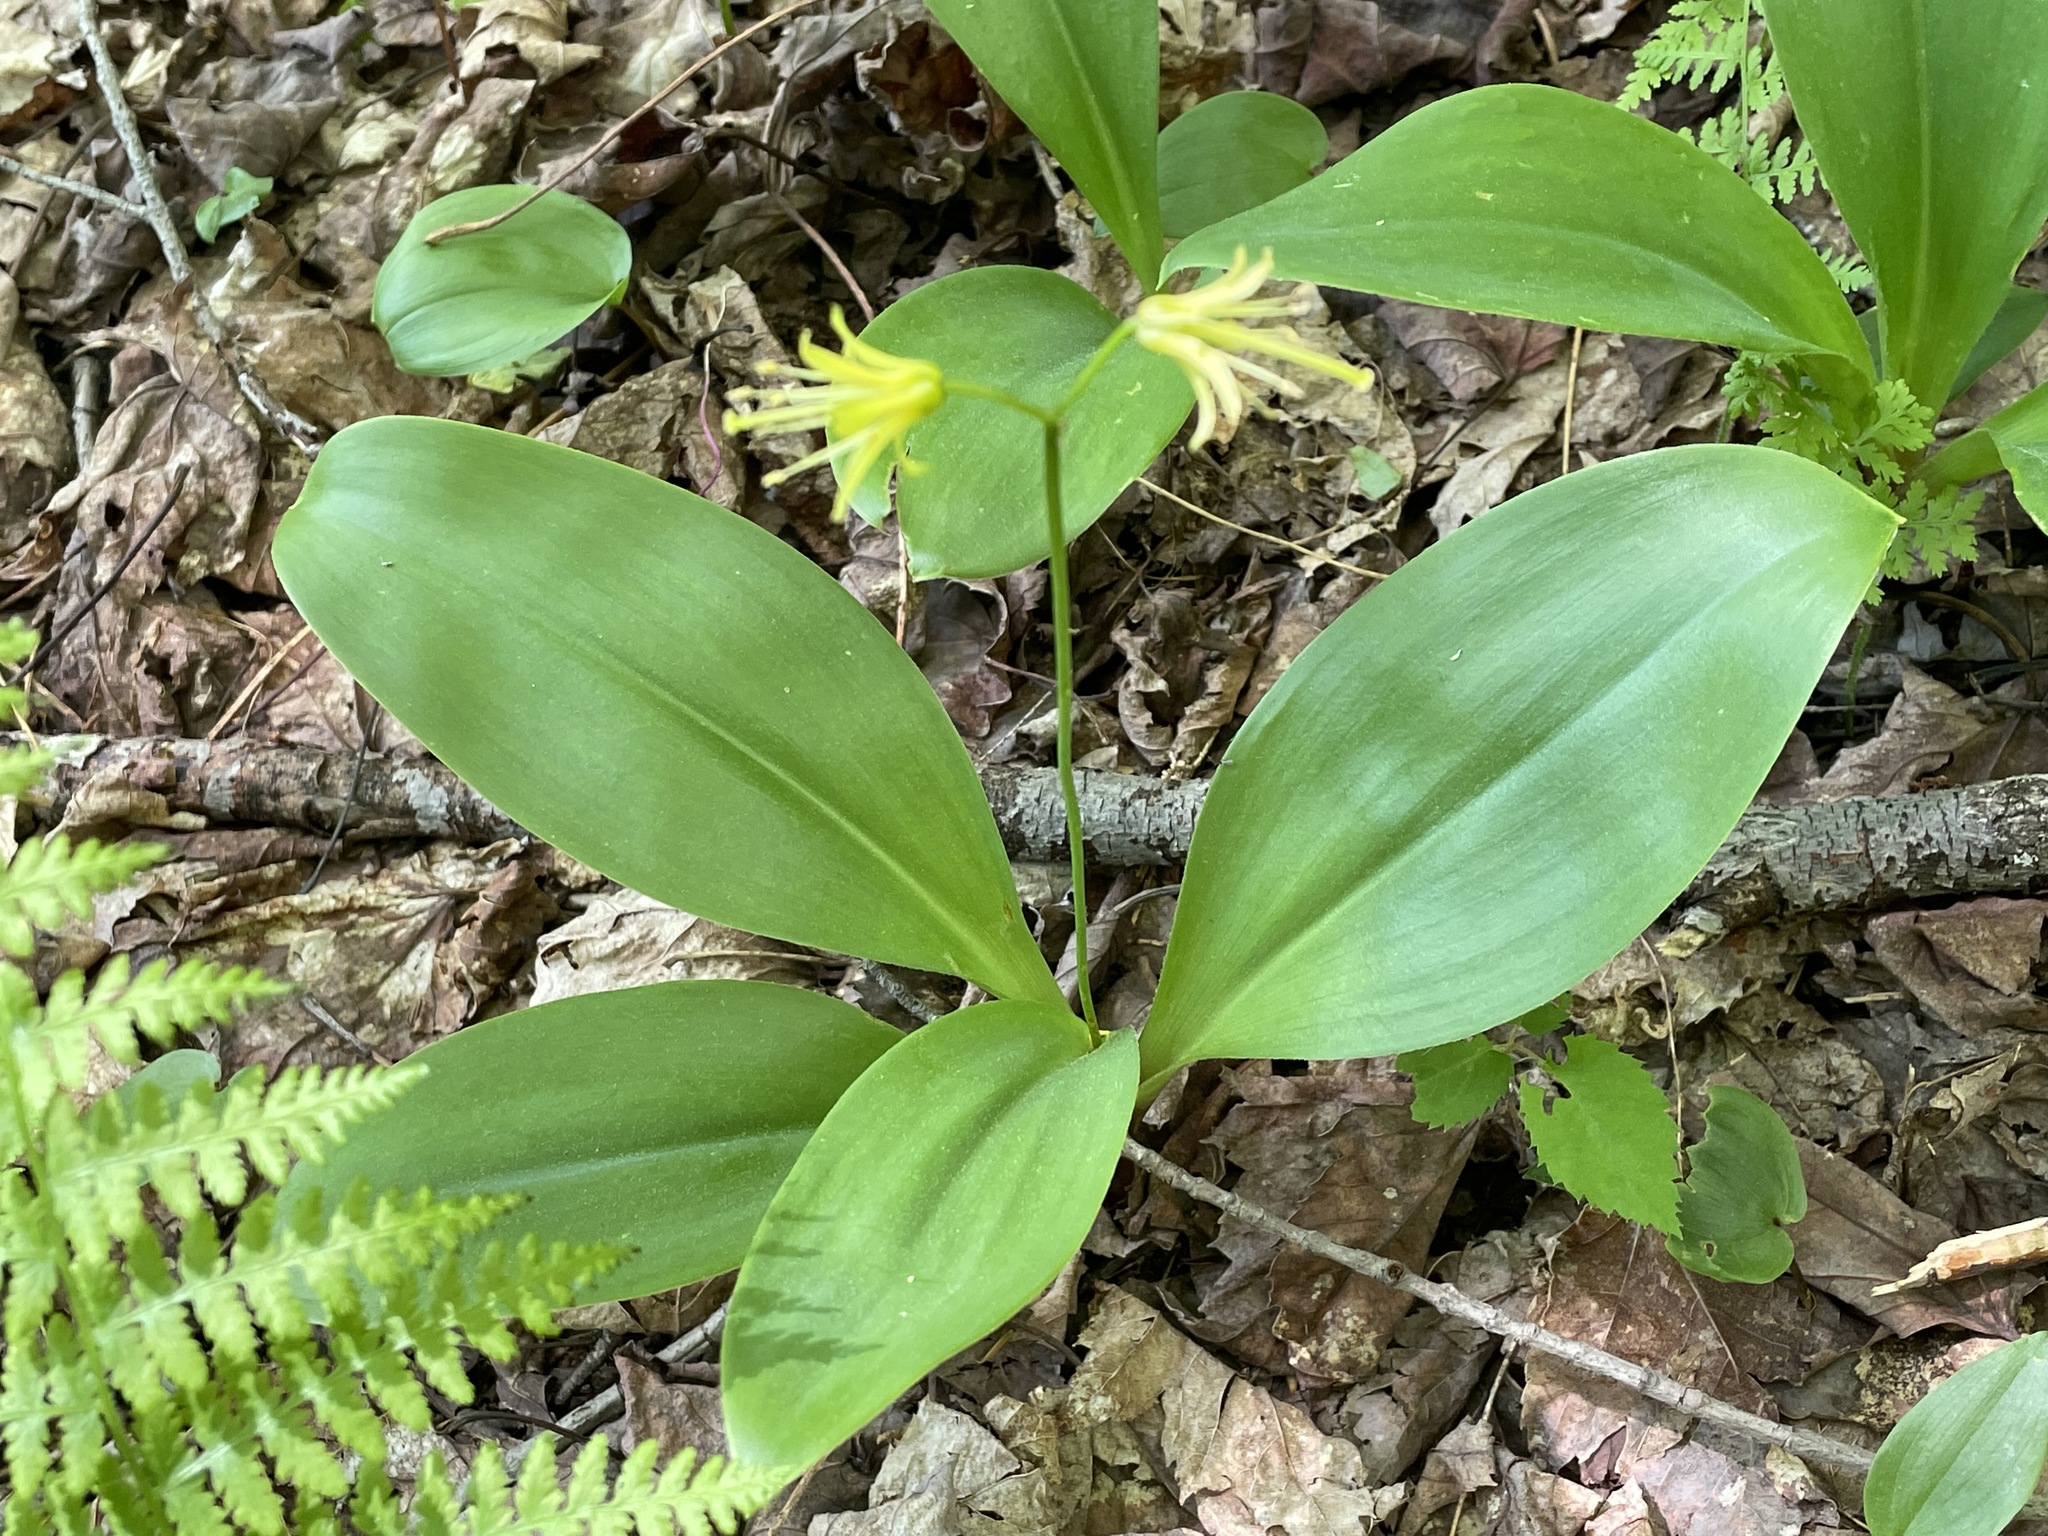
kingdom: Plantae
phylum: Tracheophyta
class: Liliopsida
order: Liliales
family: Liliaceae
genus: Clintonia
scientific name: Clintonia borealis
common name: Yellow clintonia
